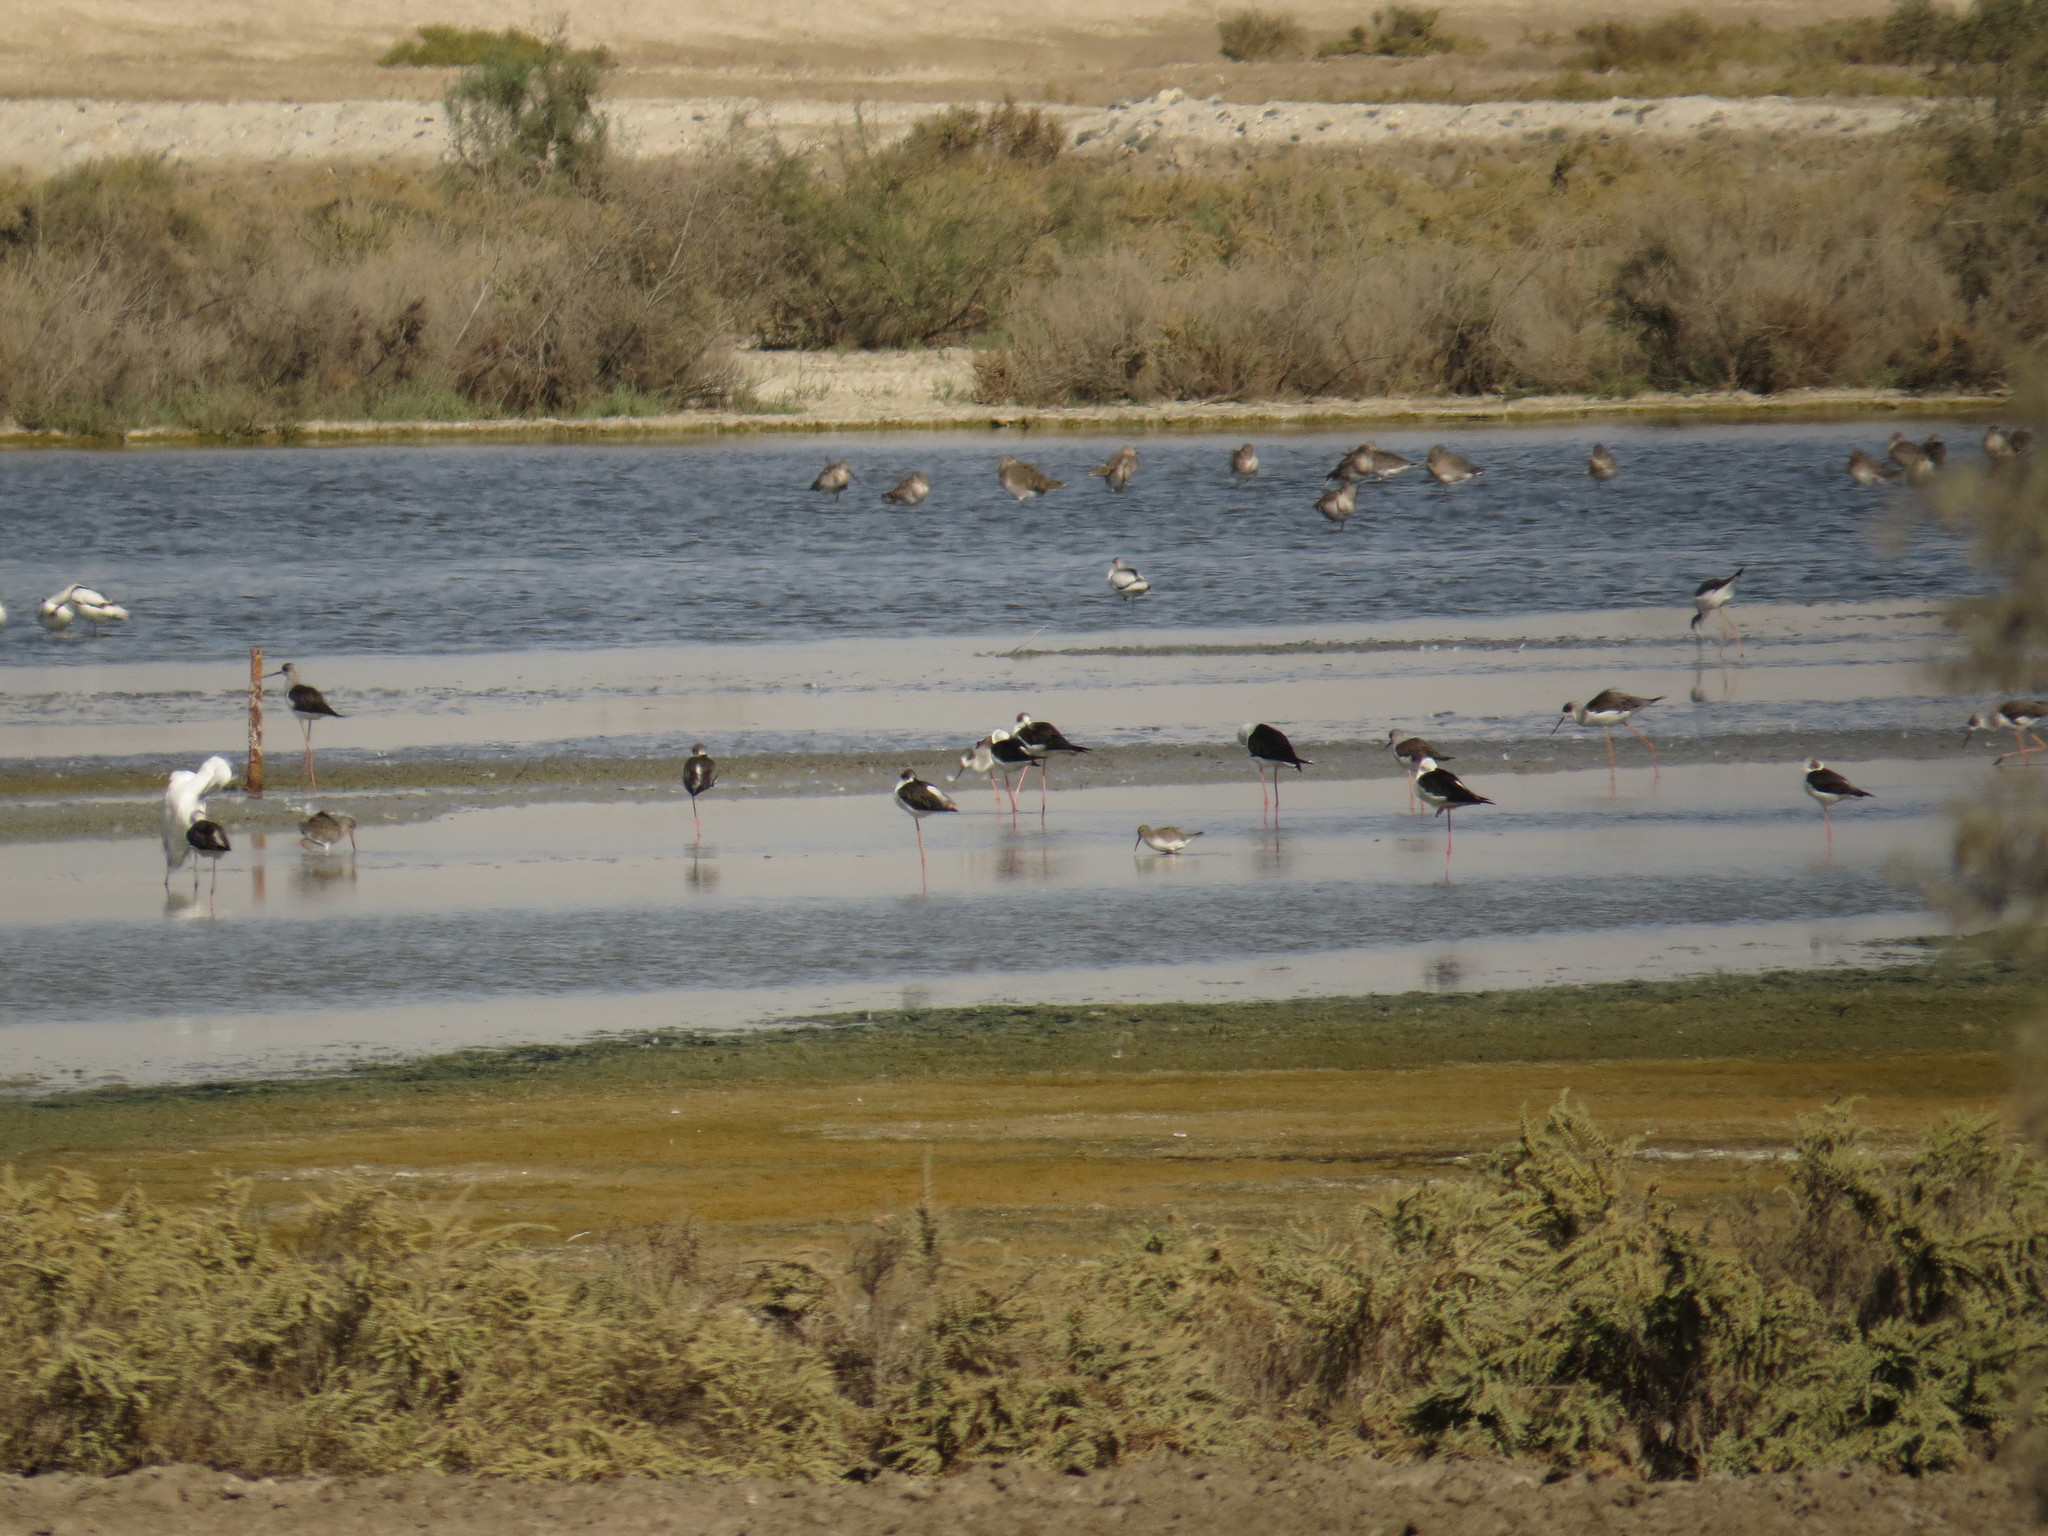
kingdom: Animalia
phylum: Chordata
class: Aves
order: Charadriiformes
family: Recurvirostridae
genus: Himantopus
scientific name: Himantopus himantopus
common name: Black-winged stilt
